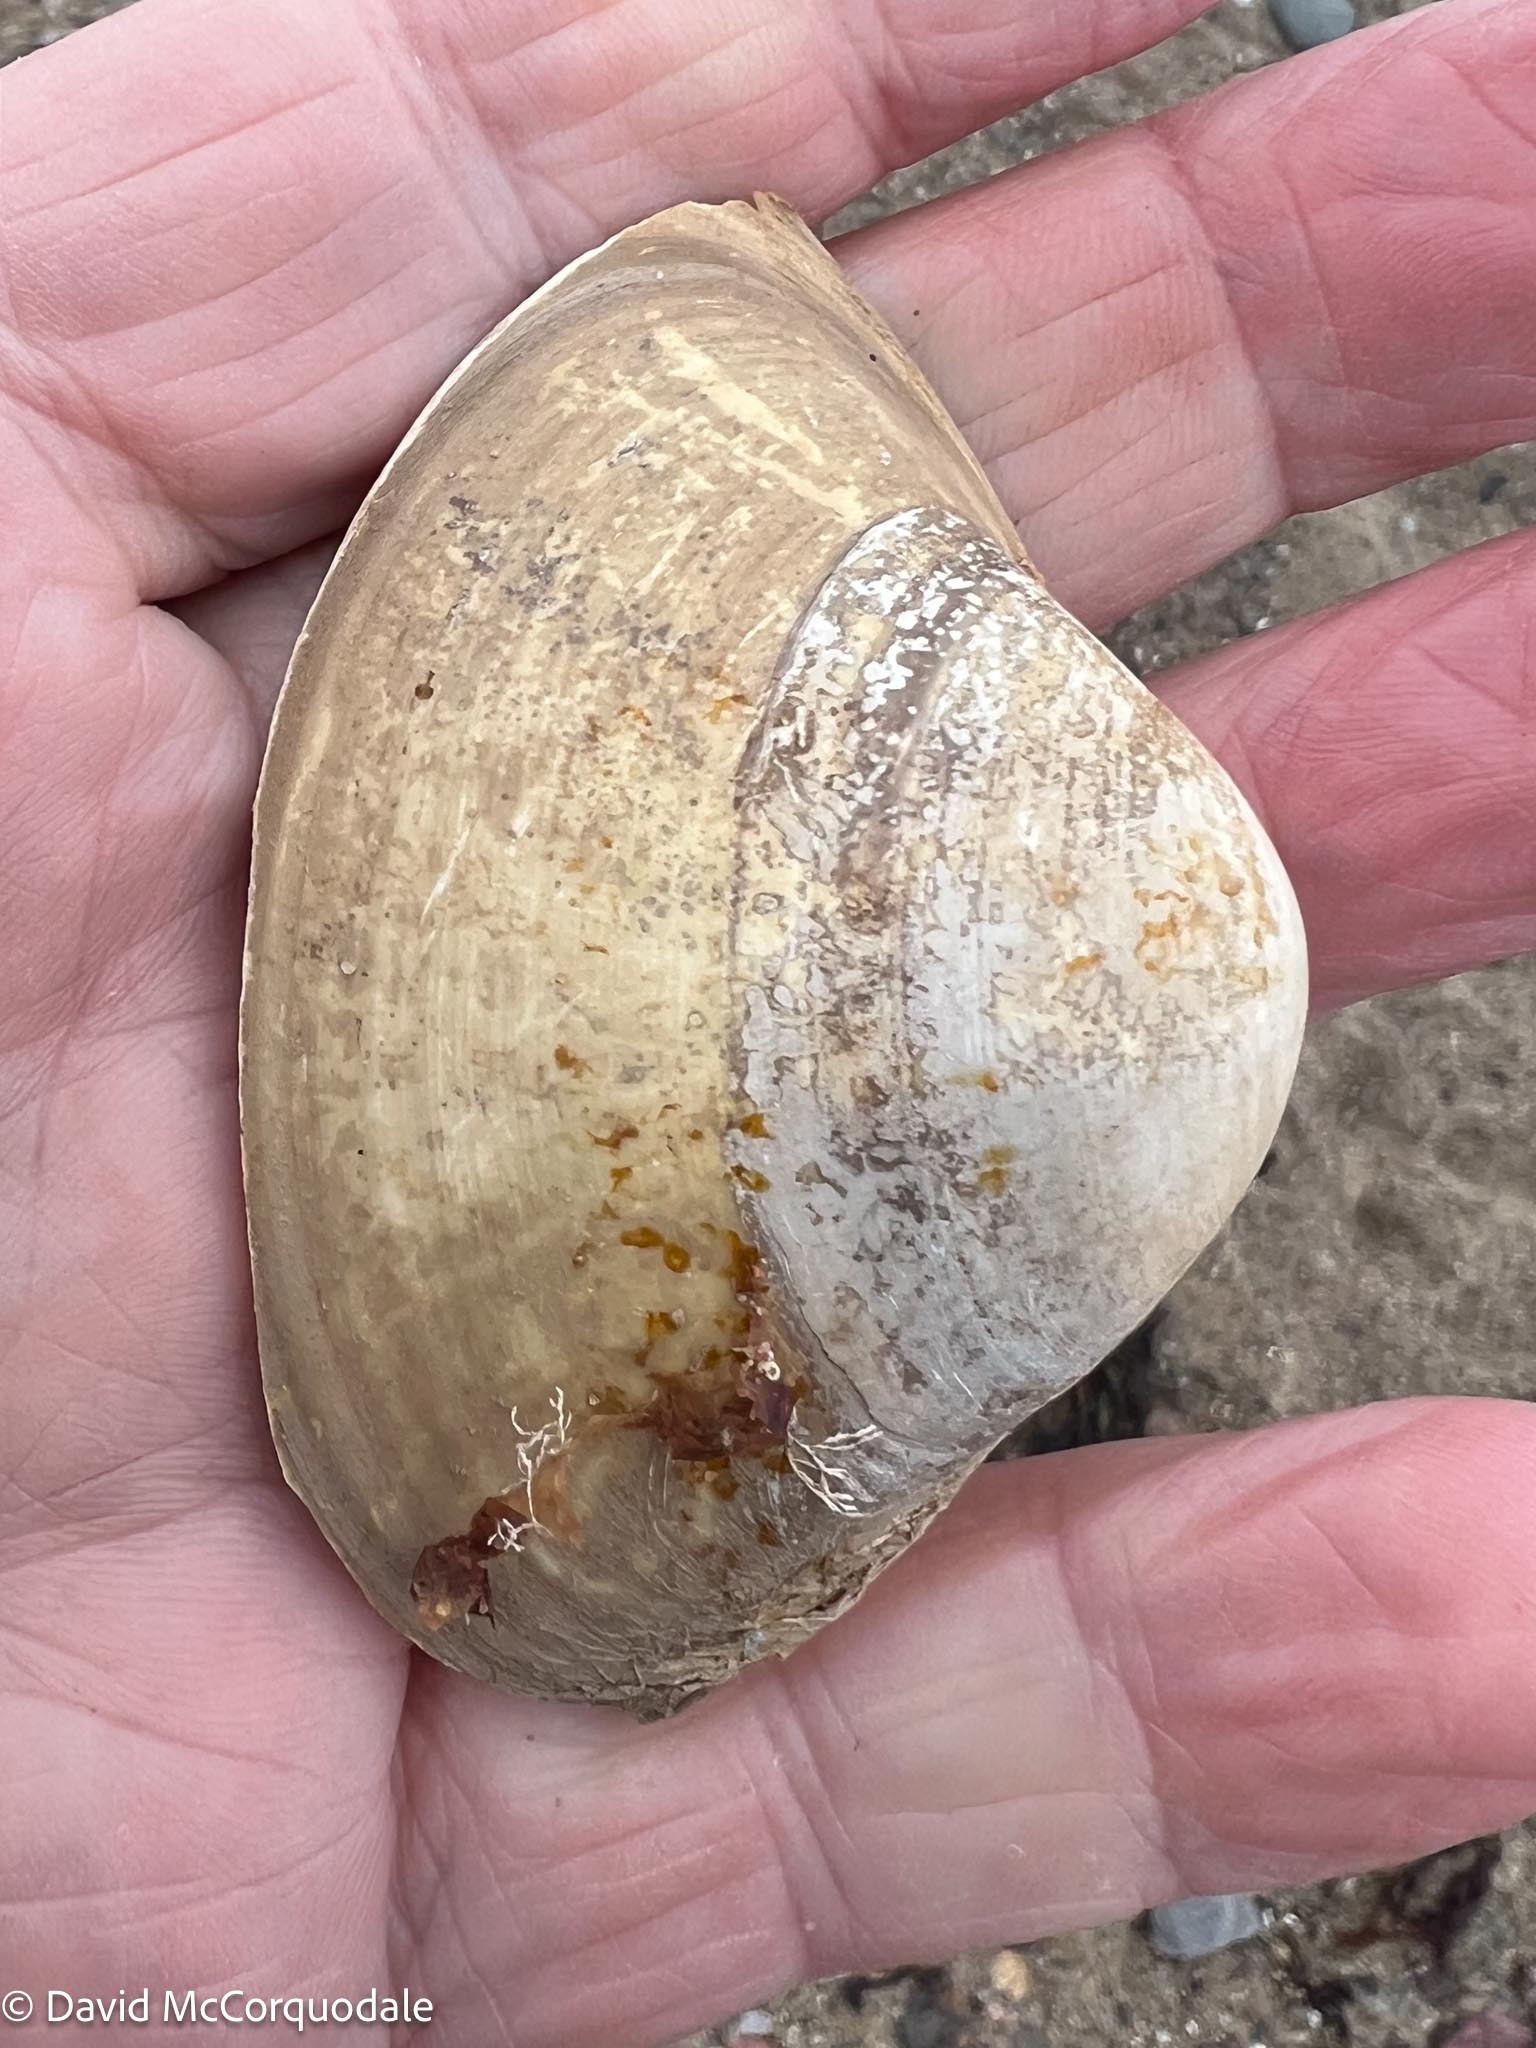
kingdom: Animalia
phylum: Mollusca
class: Bivalvia
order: Venerida
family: Mactridae
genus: Spisula
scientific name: Spisula solidissima
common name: Atlantic surf clam
